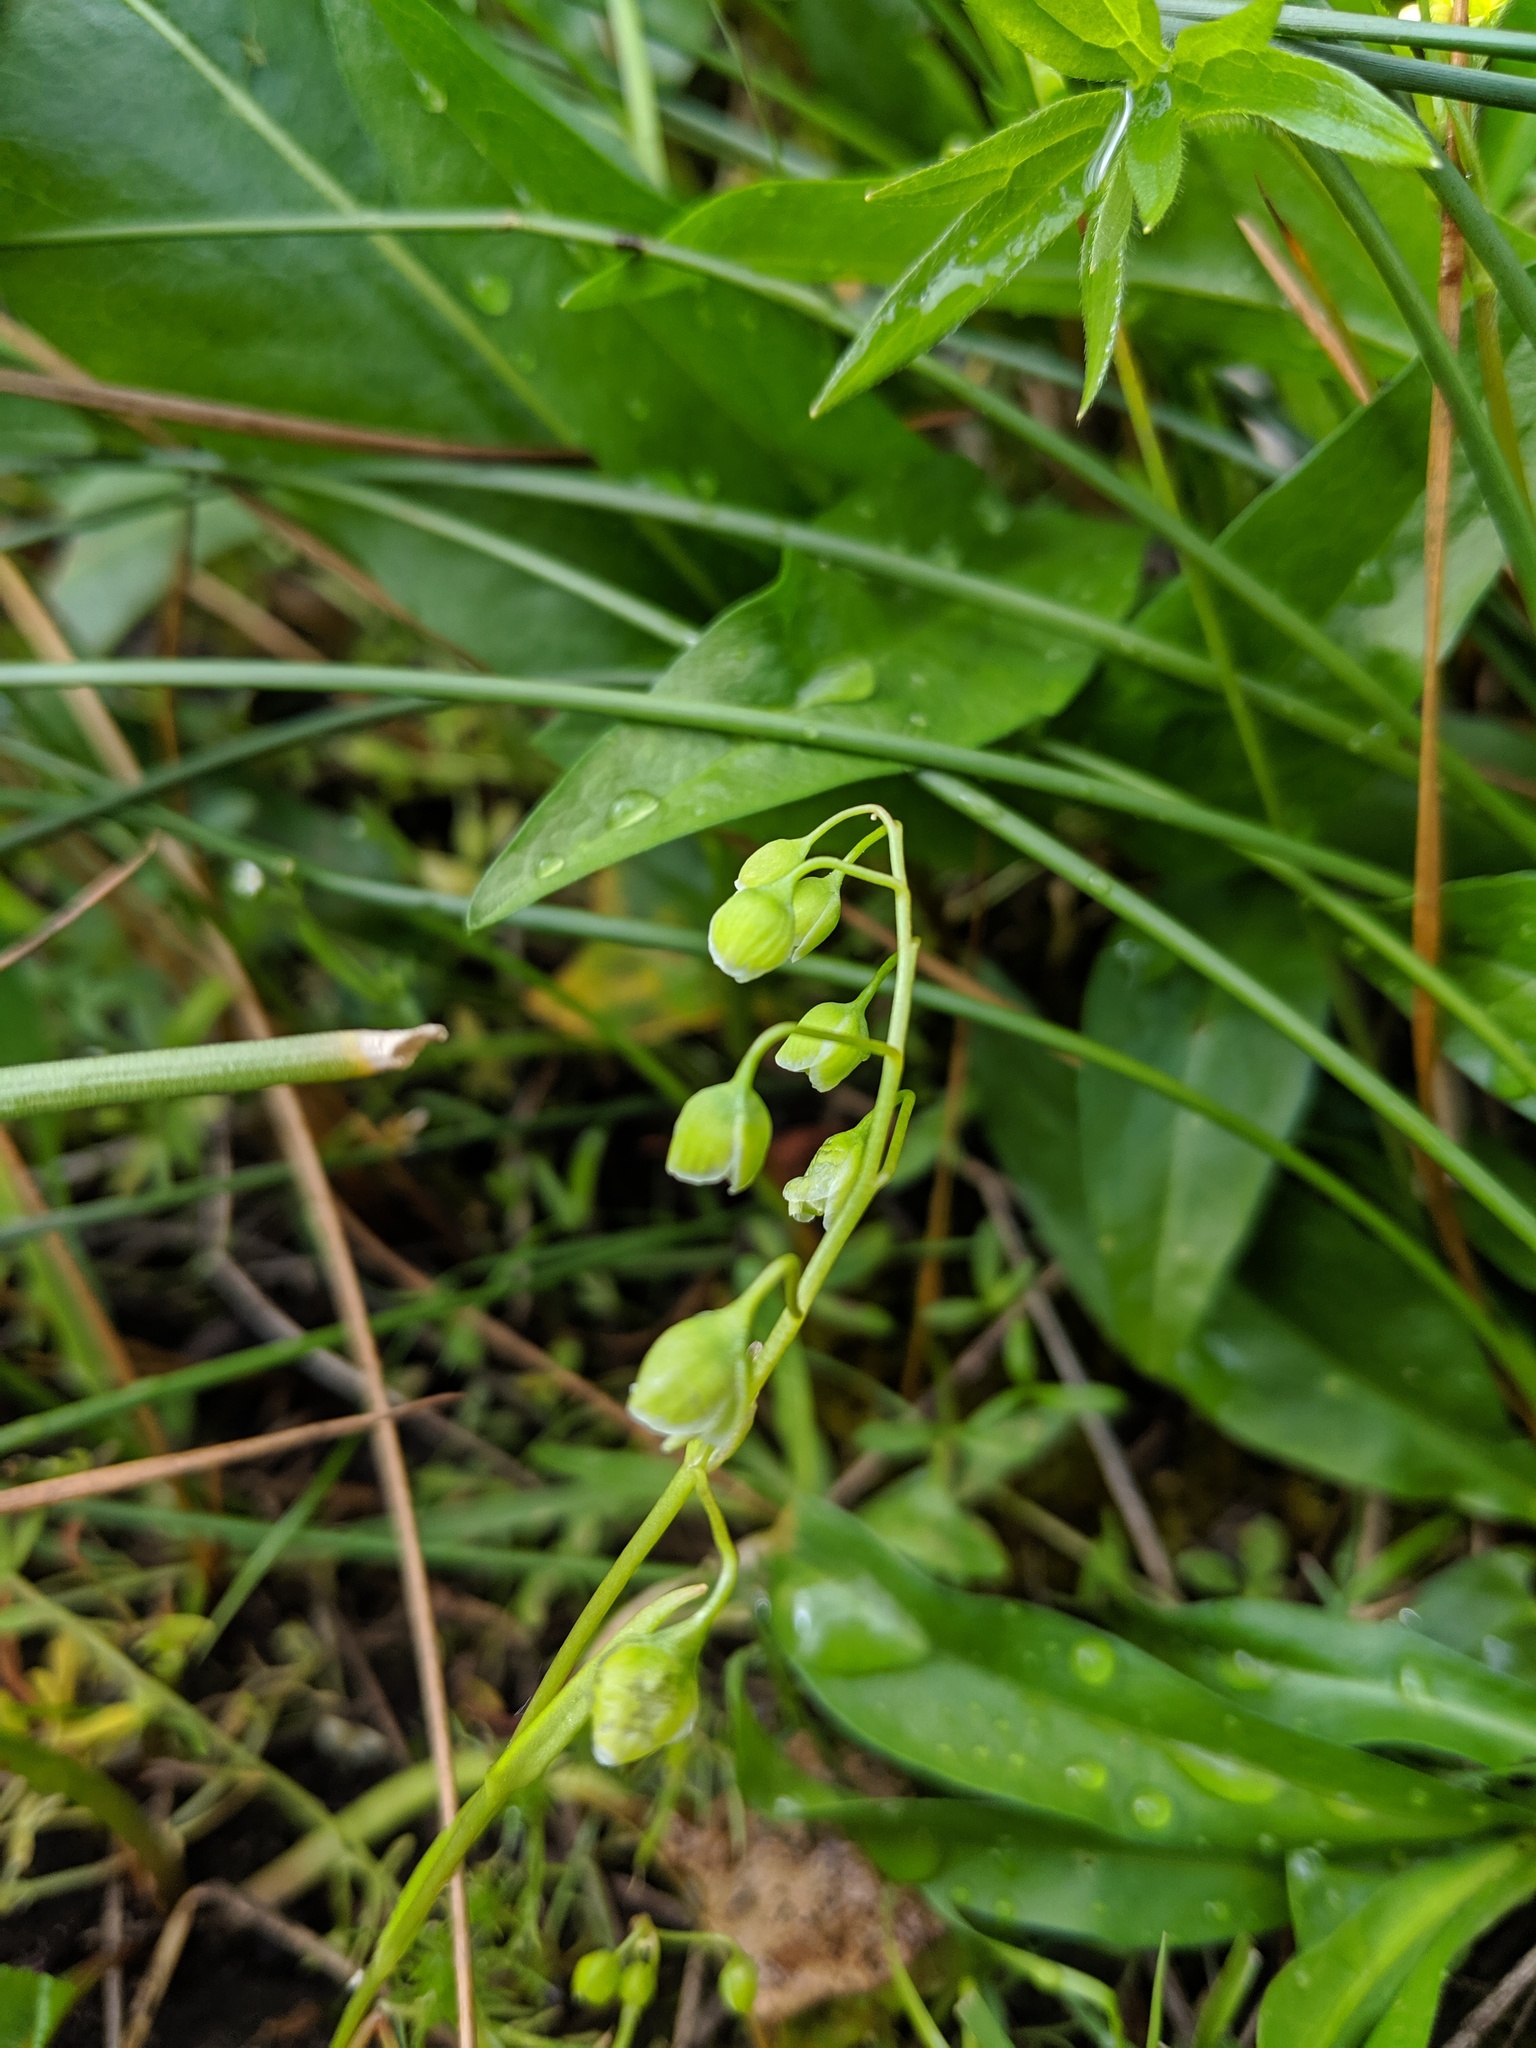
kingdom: Plantae
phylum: Tracheophyta
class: Magnoliopsida
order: Caryophyllales
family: Montiaceae
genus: Montia
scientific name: Montia linearis
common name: Narrow-leaf montia
